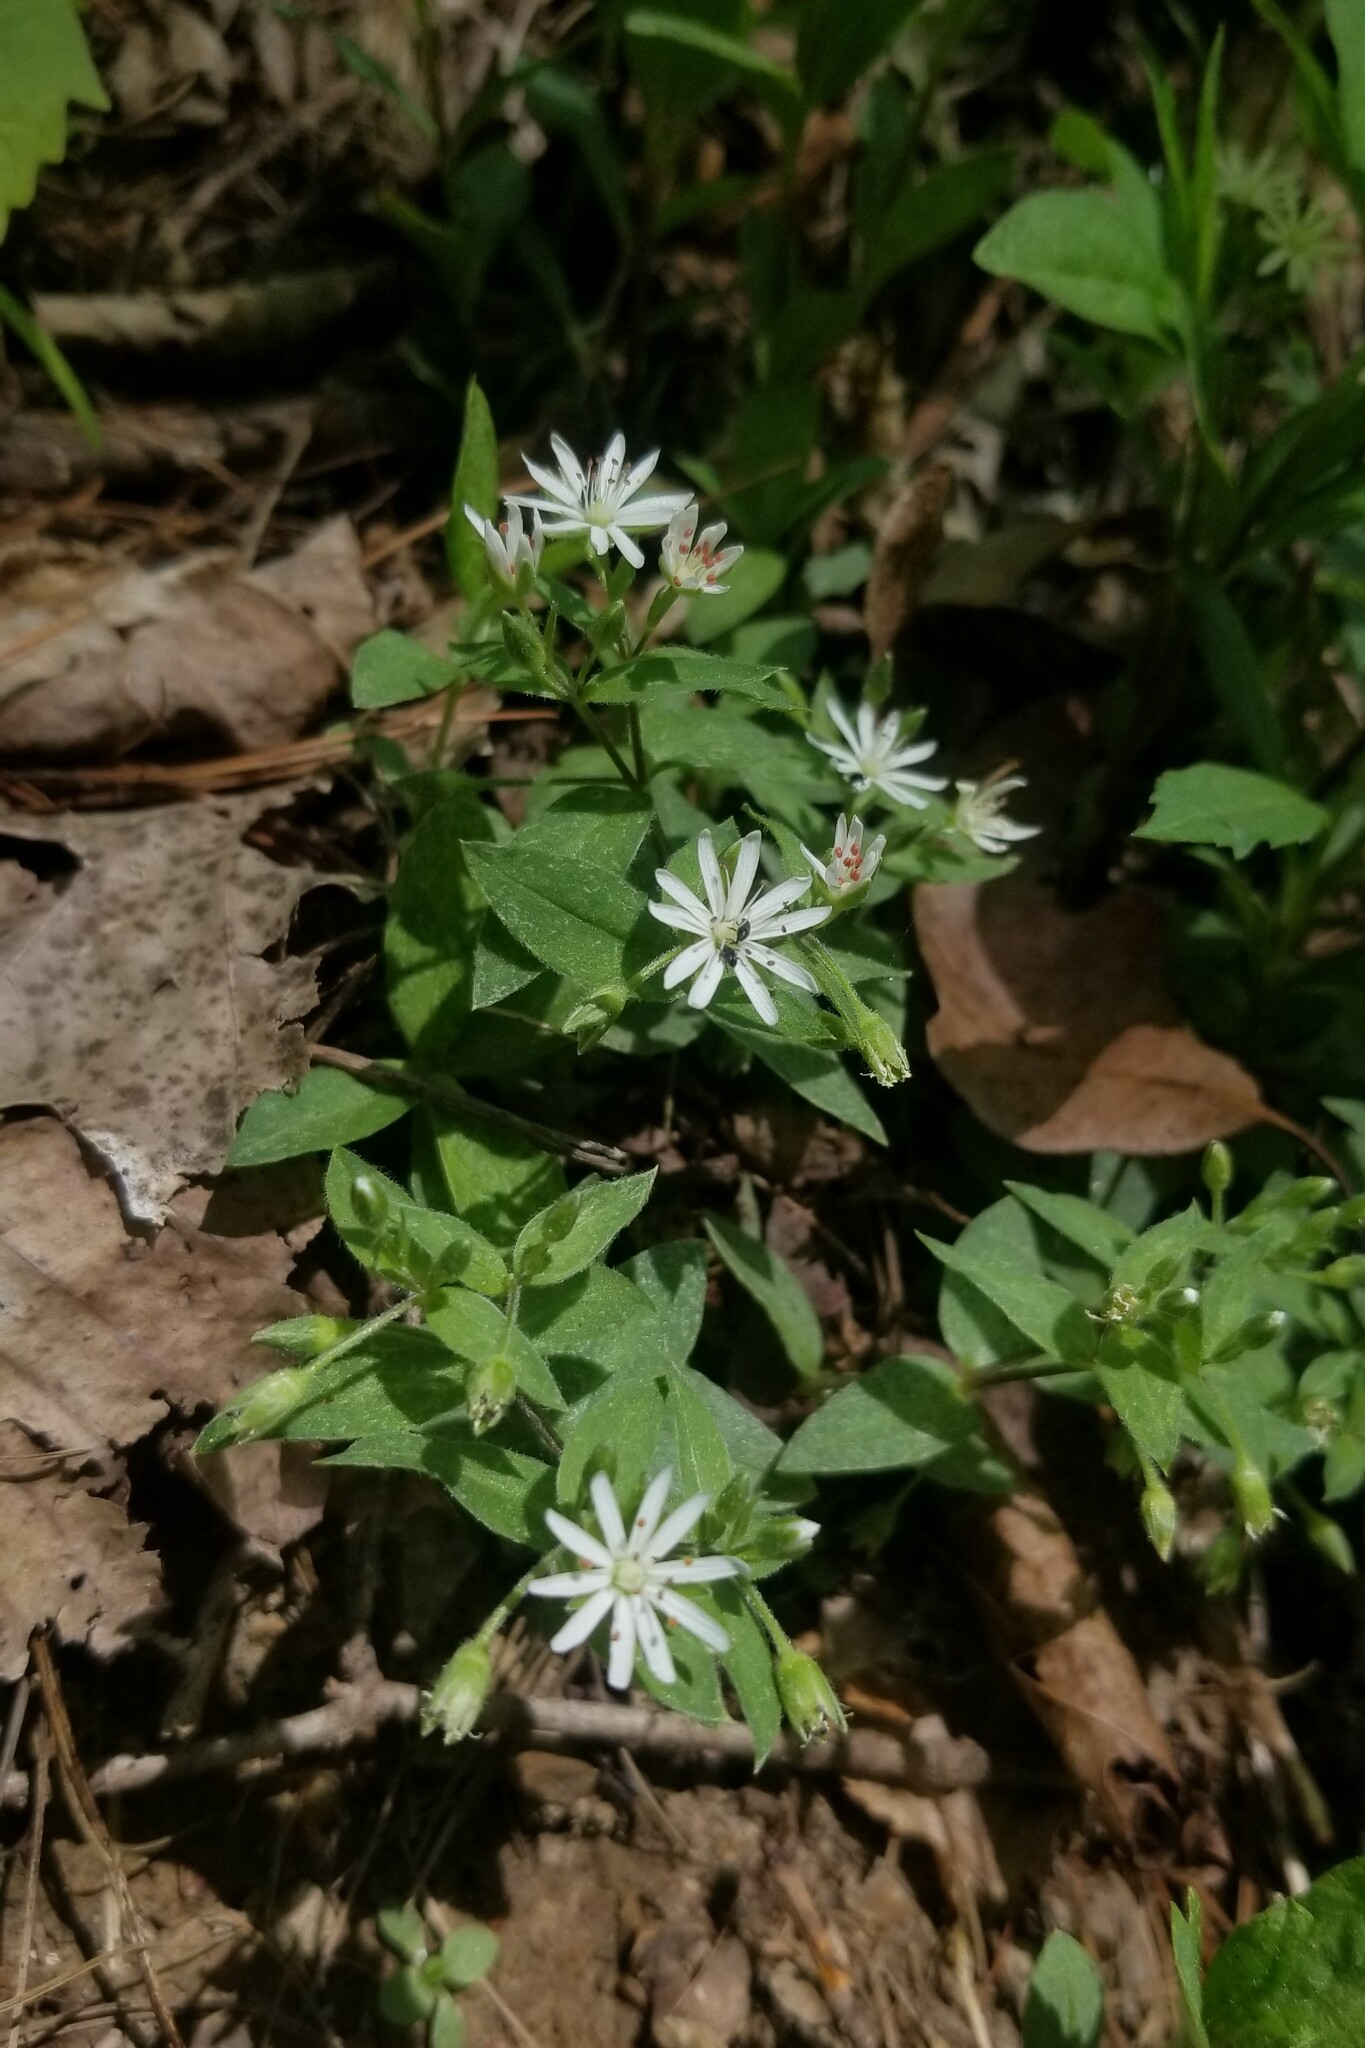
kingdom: Plantae
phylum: Tracheophyta
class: Magnoliopsida
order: Caryophyllales
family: Caryophyllaceae
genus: Stellaria
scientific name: Stellaria pubera
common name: Star chickweed
